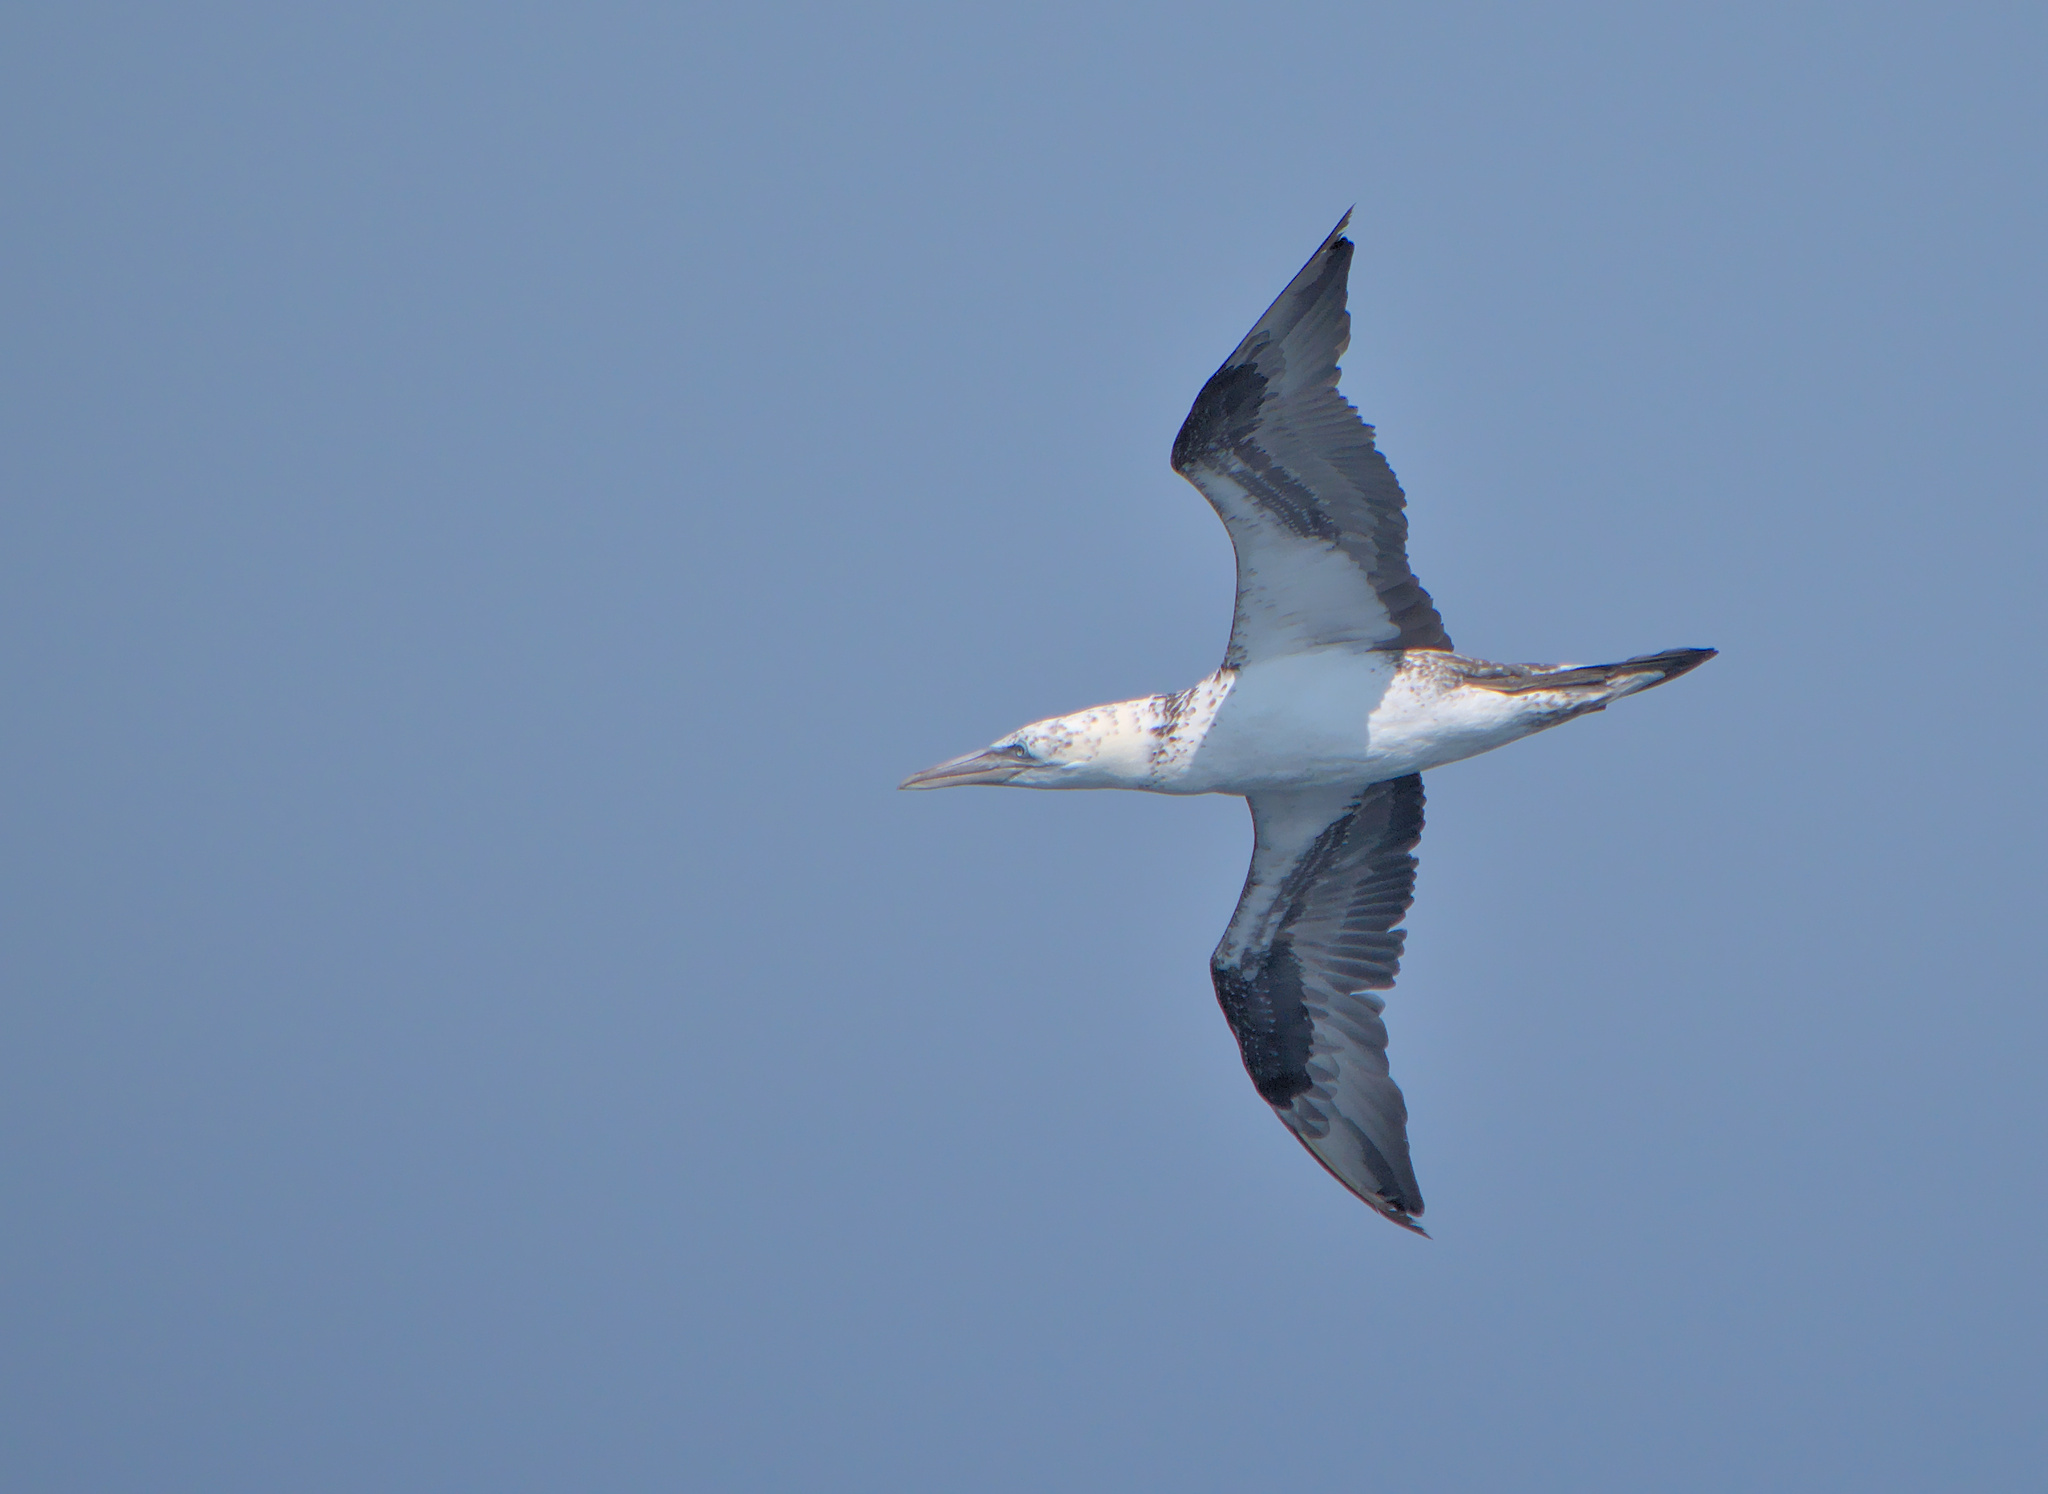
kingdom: Animalia
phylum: Chordata
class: Aves
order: Suliformes
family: Sulidae
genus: Morus
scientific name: Morus bassanus
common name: Northern gannet
